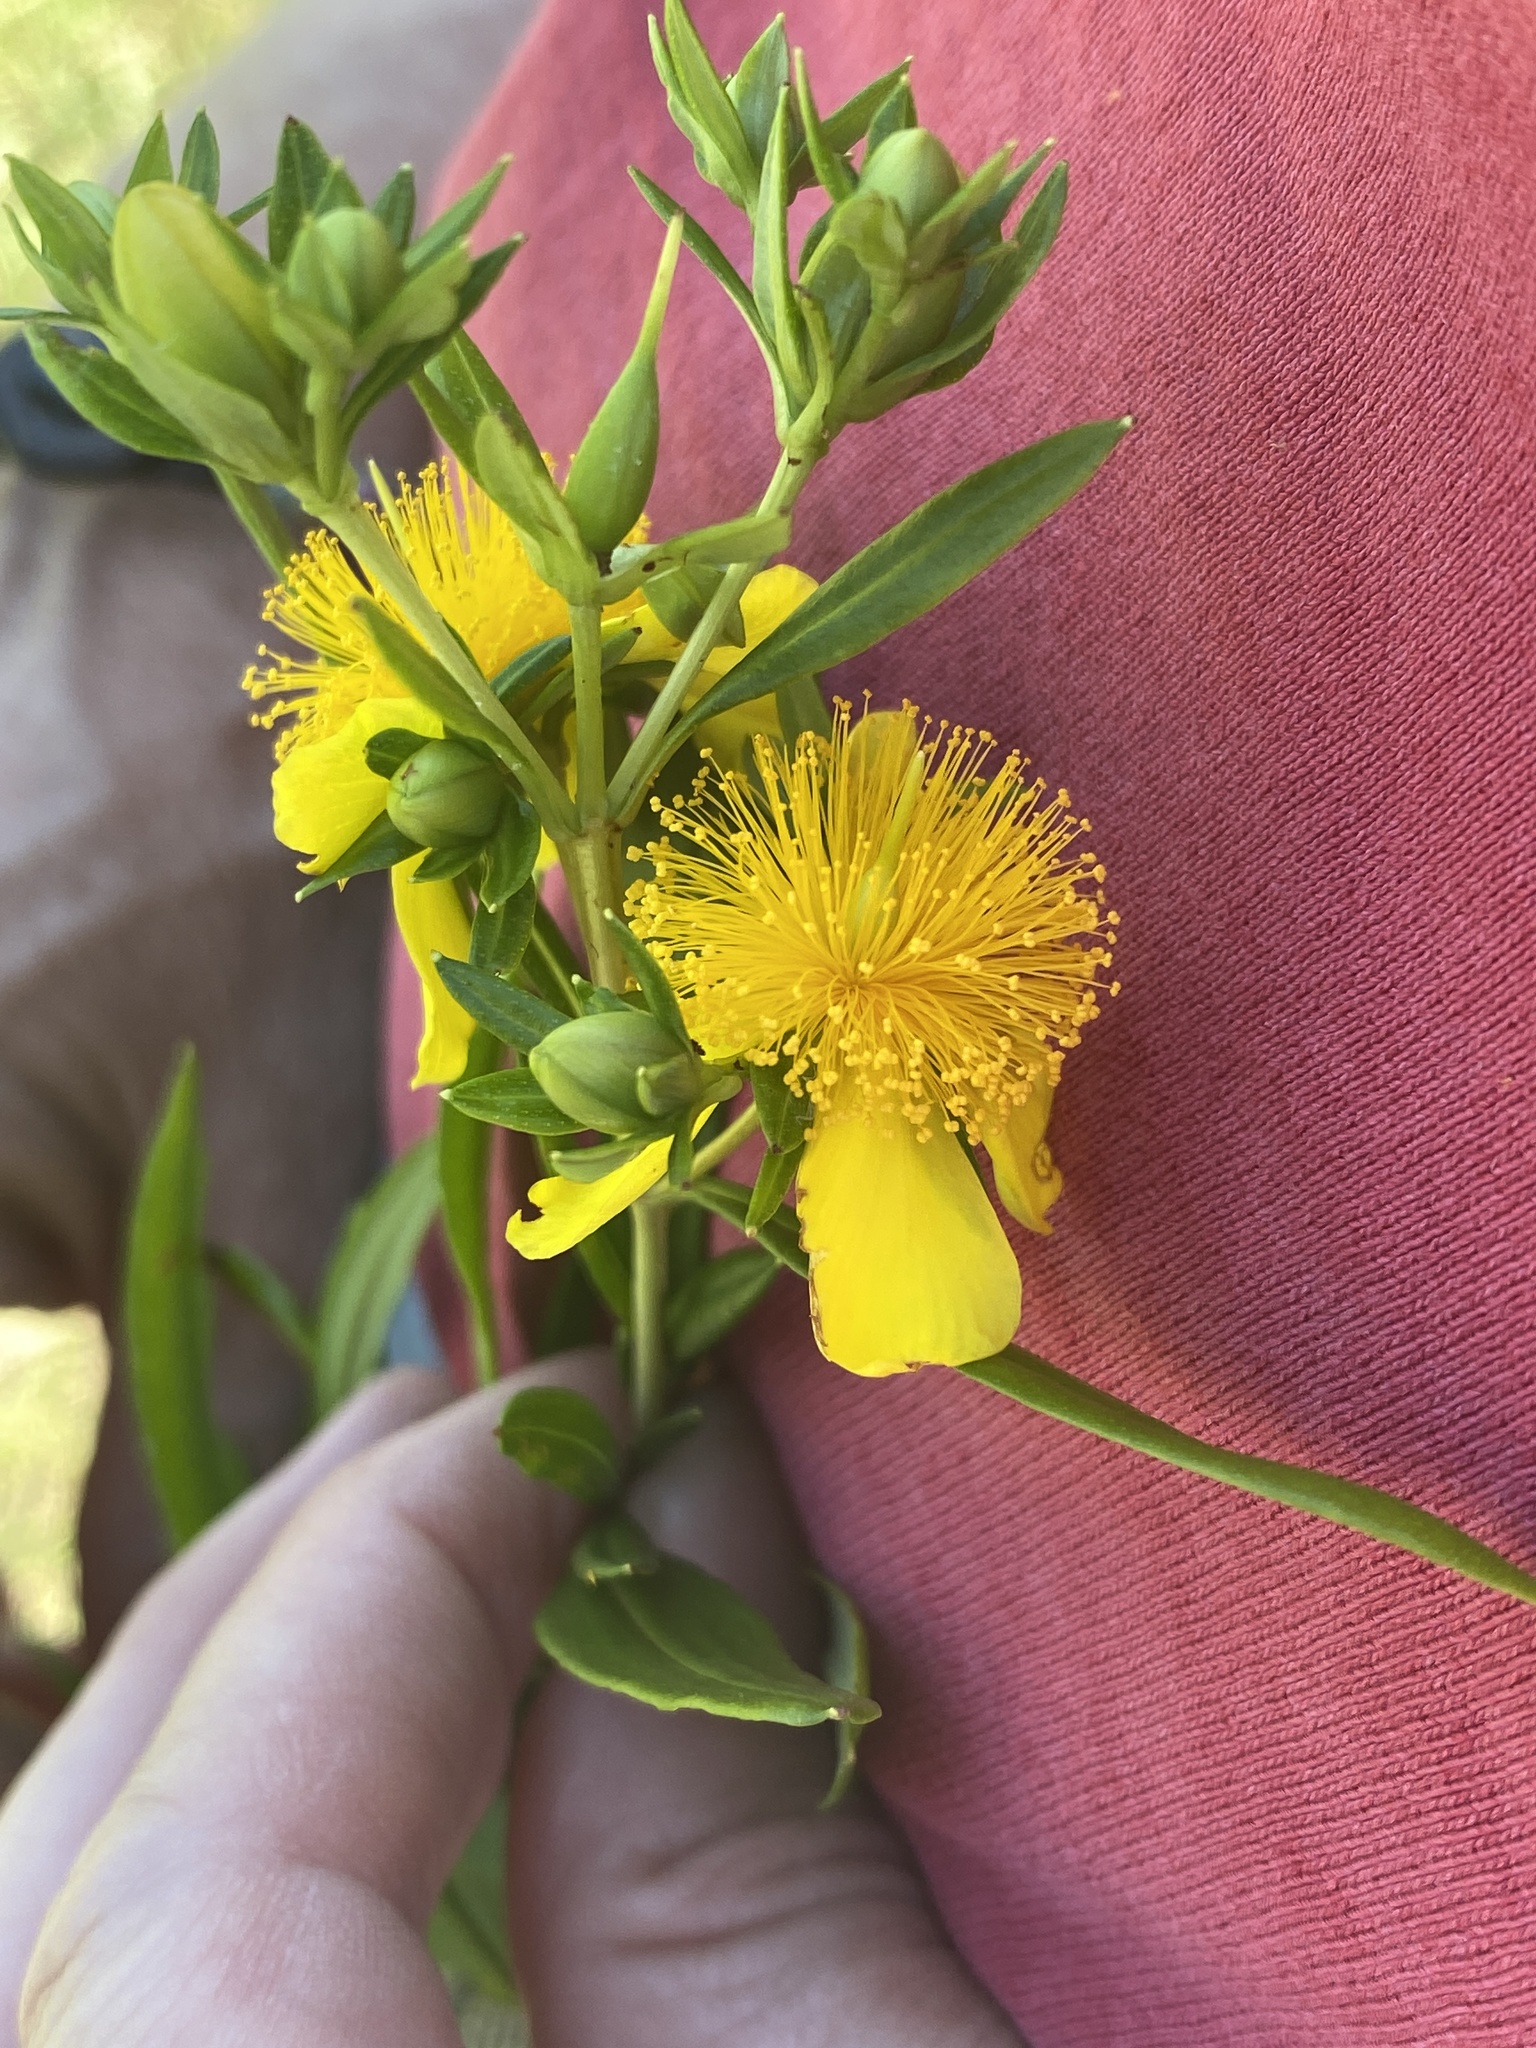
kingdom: Plantae
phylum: Tracheophyta
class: Magnoliopsida
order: Malpighiales
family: Hypericaceae
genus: Hypericum
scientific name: Hypericum nudiflorum
